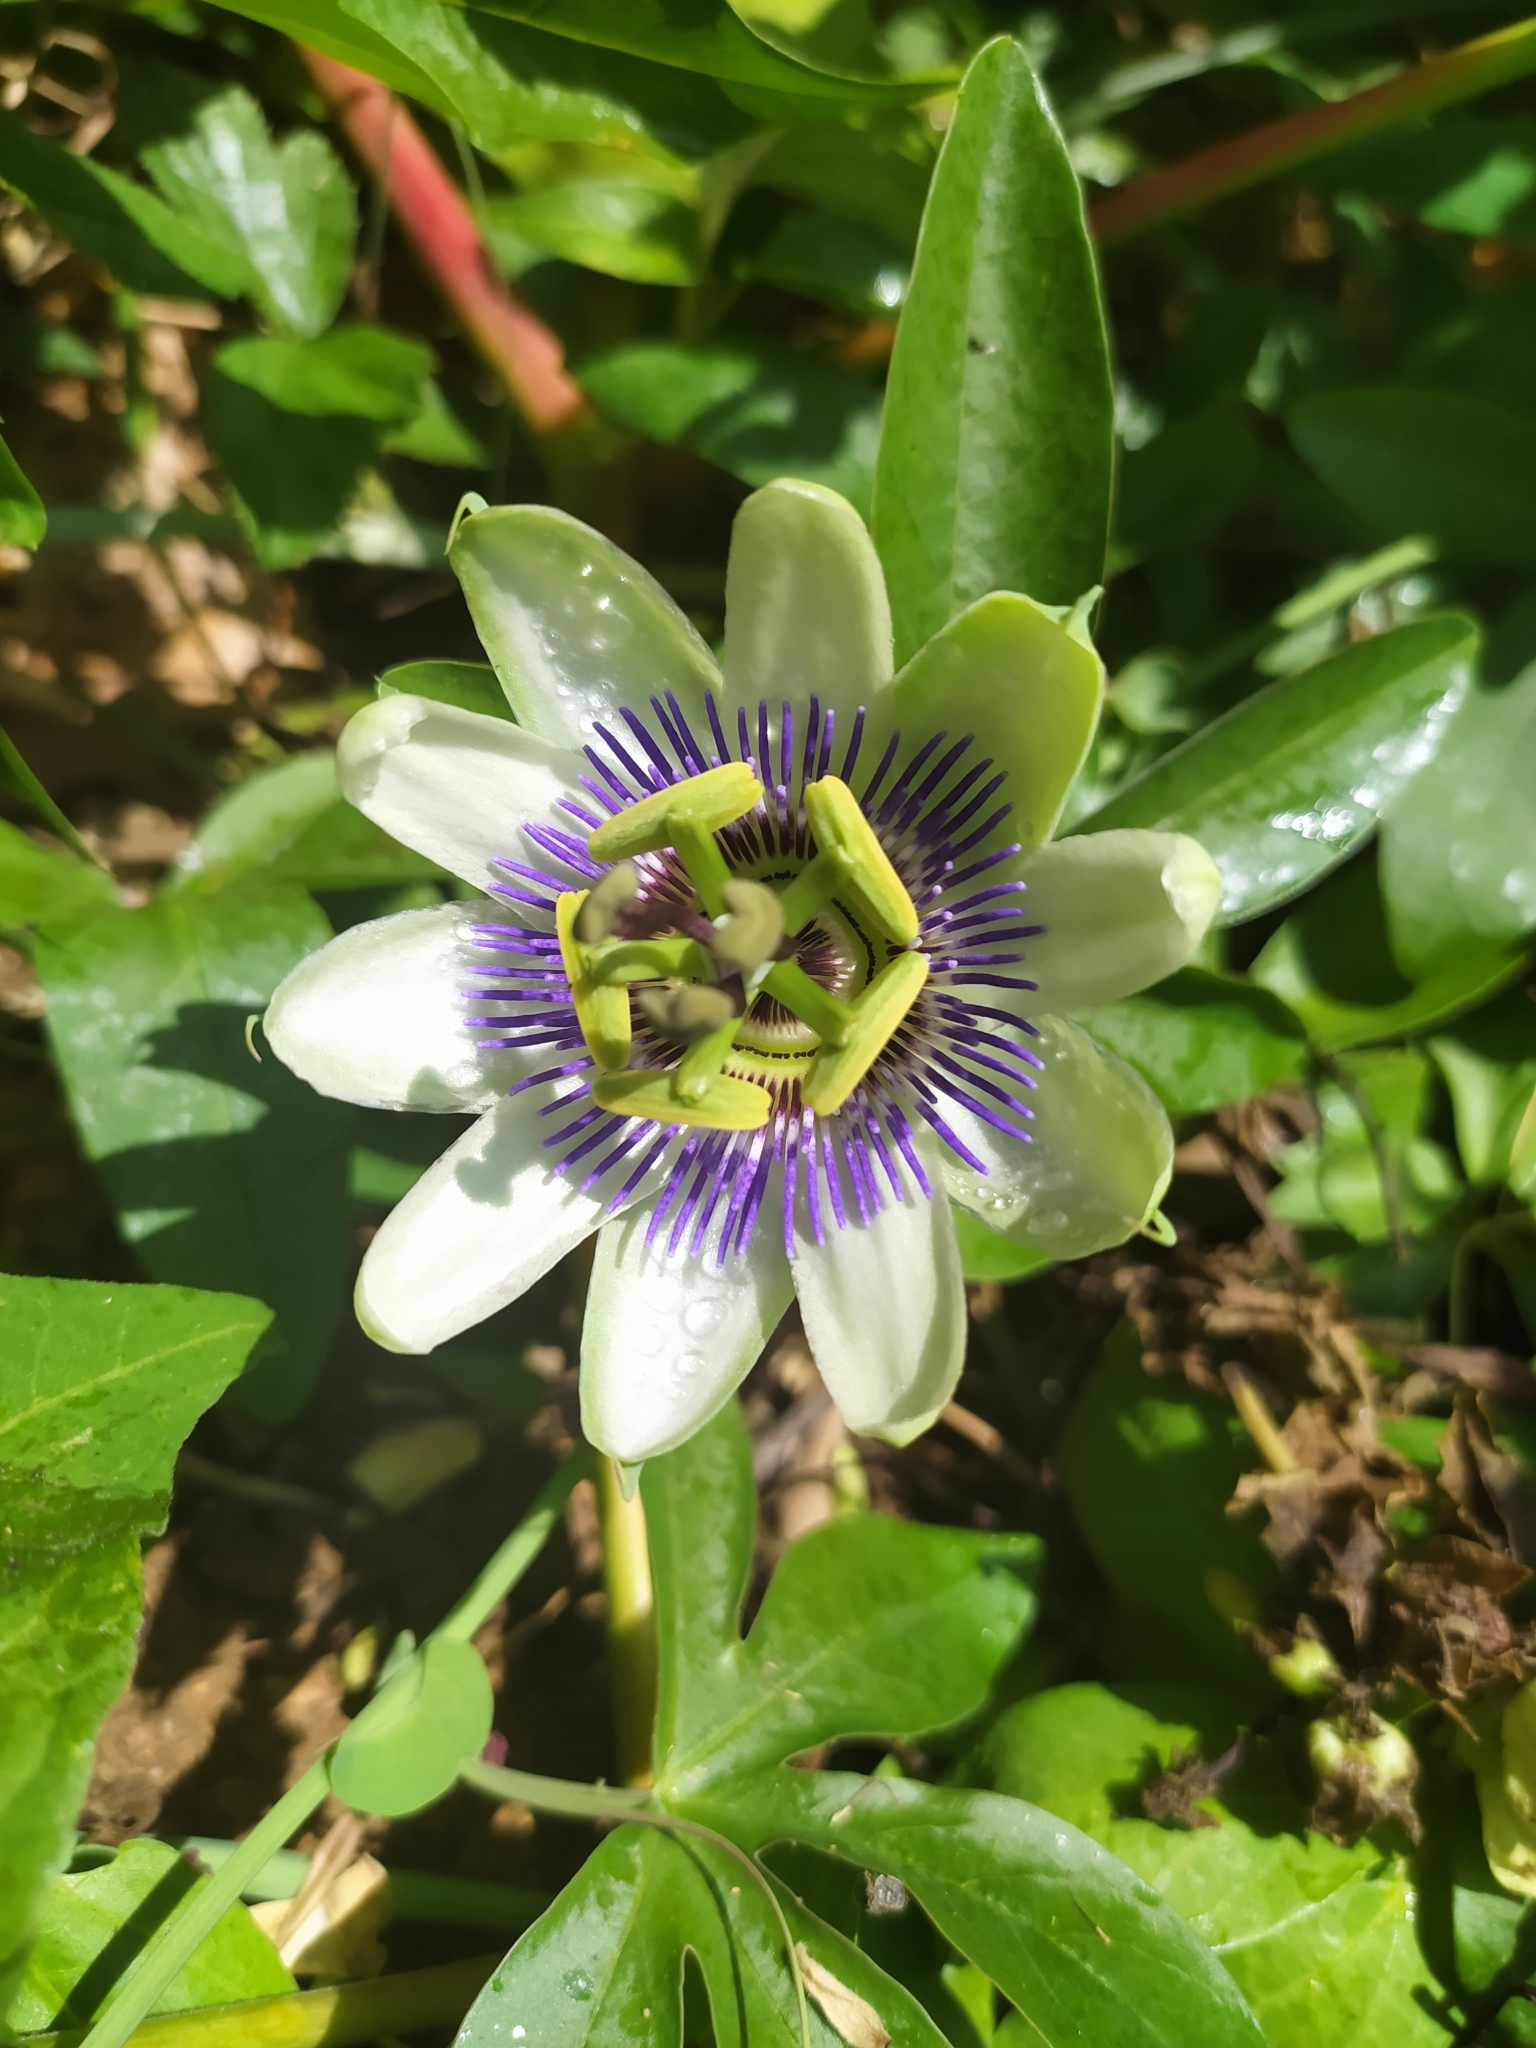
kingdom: Plantae
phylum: Tracheophyta
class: Magnoliopsida
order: Malpighiales
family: Passifloraceae
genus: Passiflora
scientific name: Passiflora caerulea
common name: Blue passionflower
